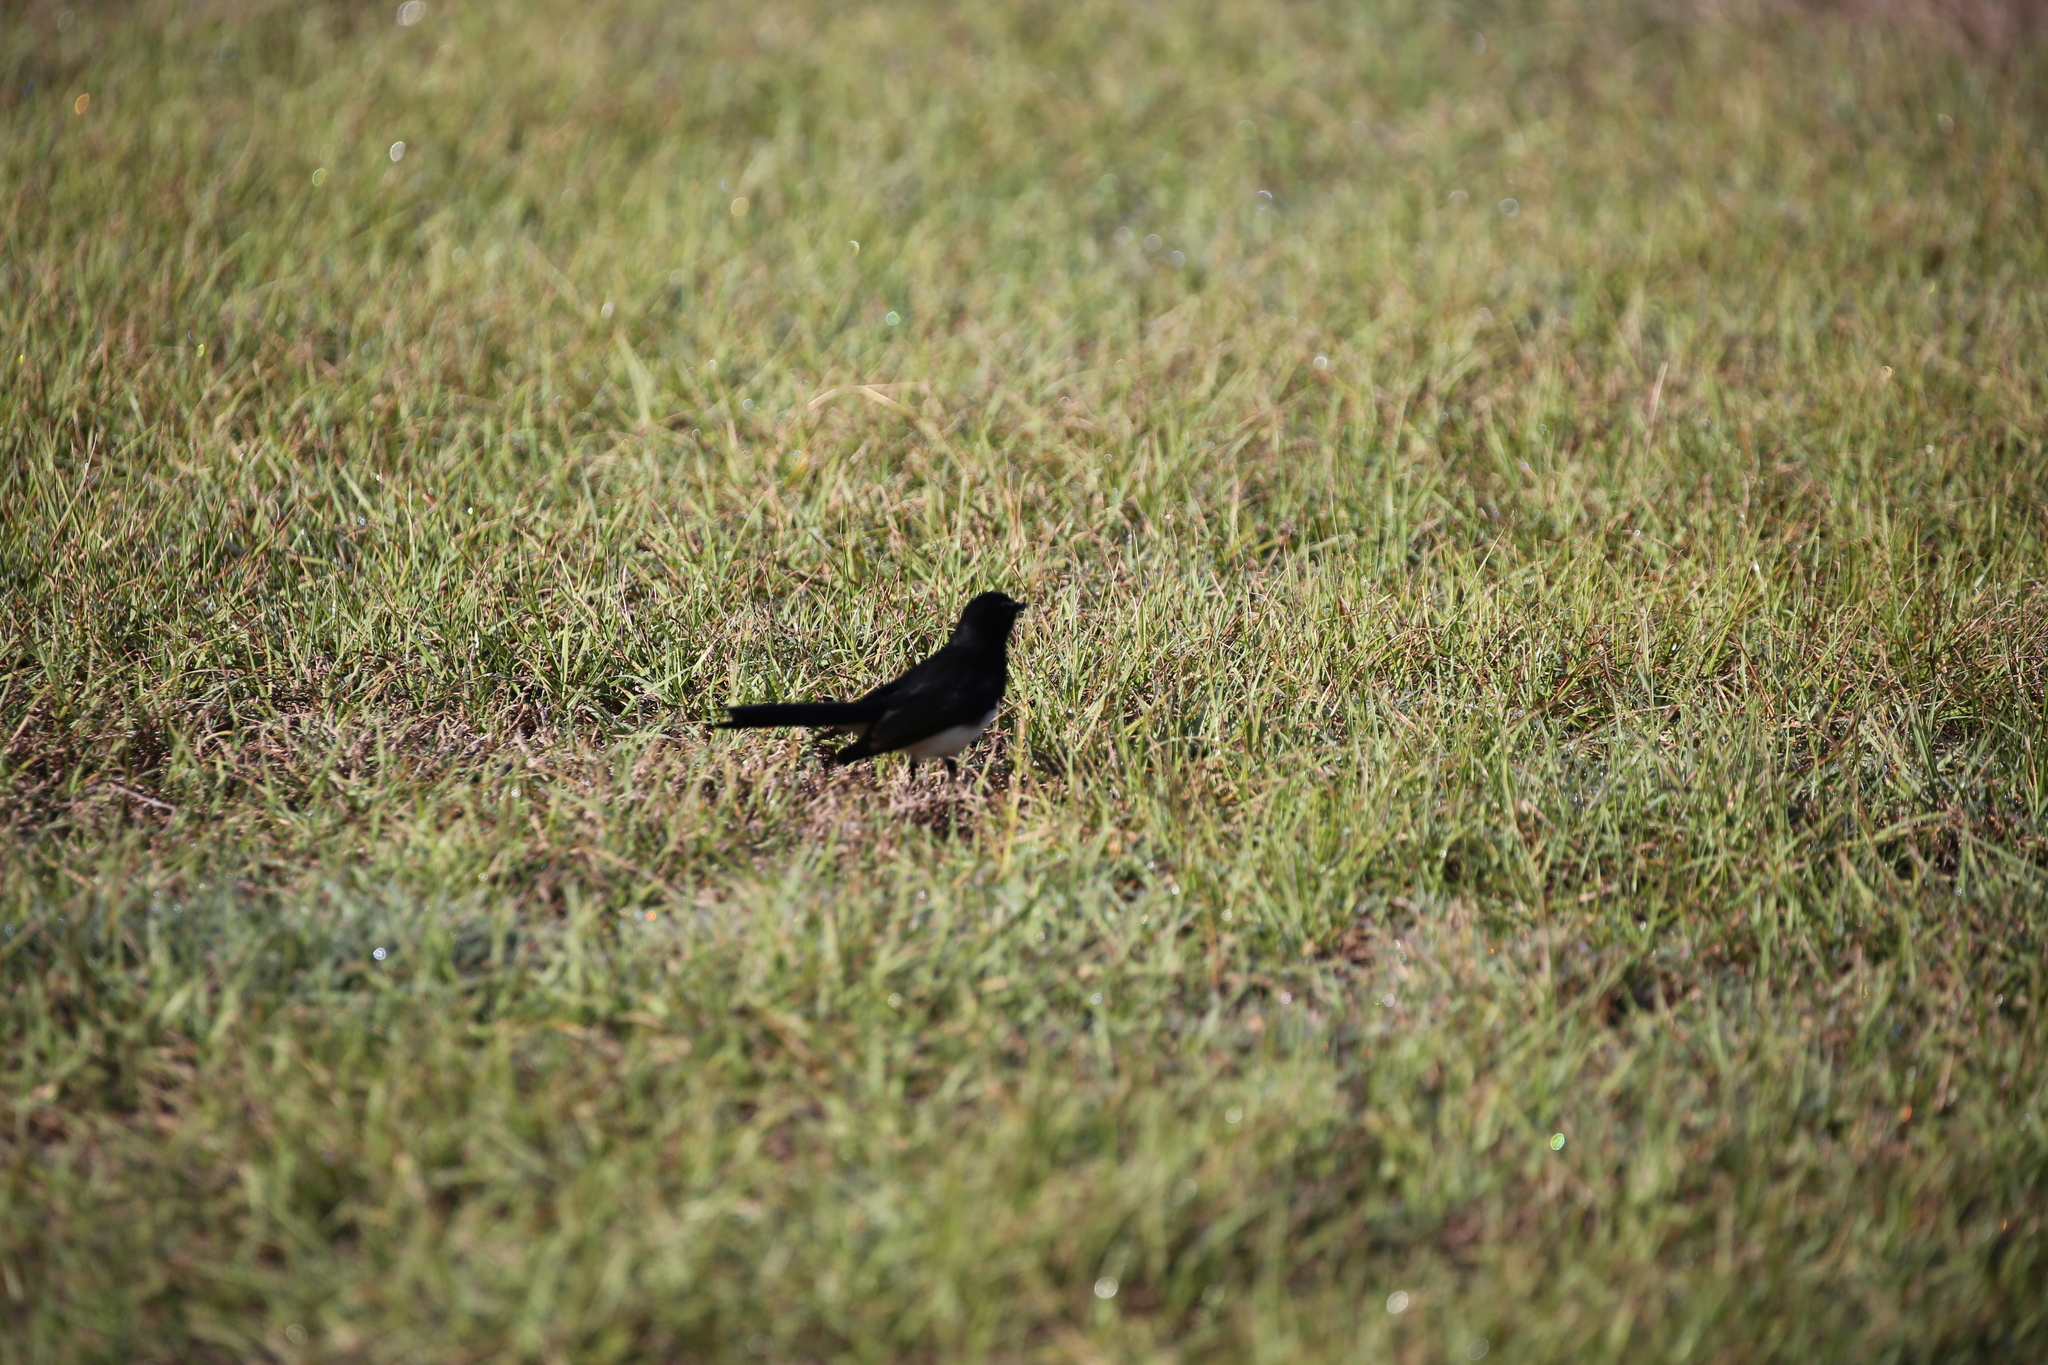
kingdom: Animalia
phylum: Chordata
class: Aves
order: Passeriformes
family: Rhipiduridae
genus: Rhipidura
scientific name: Rhipidura leucophrys
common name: Willie wagtail
